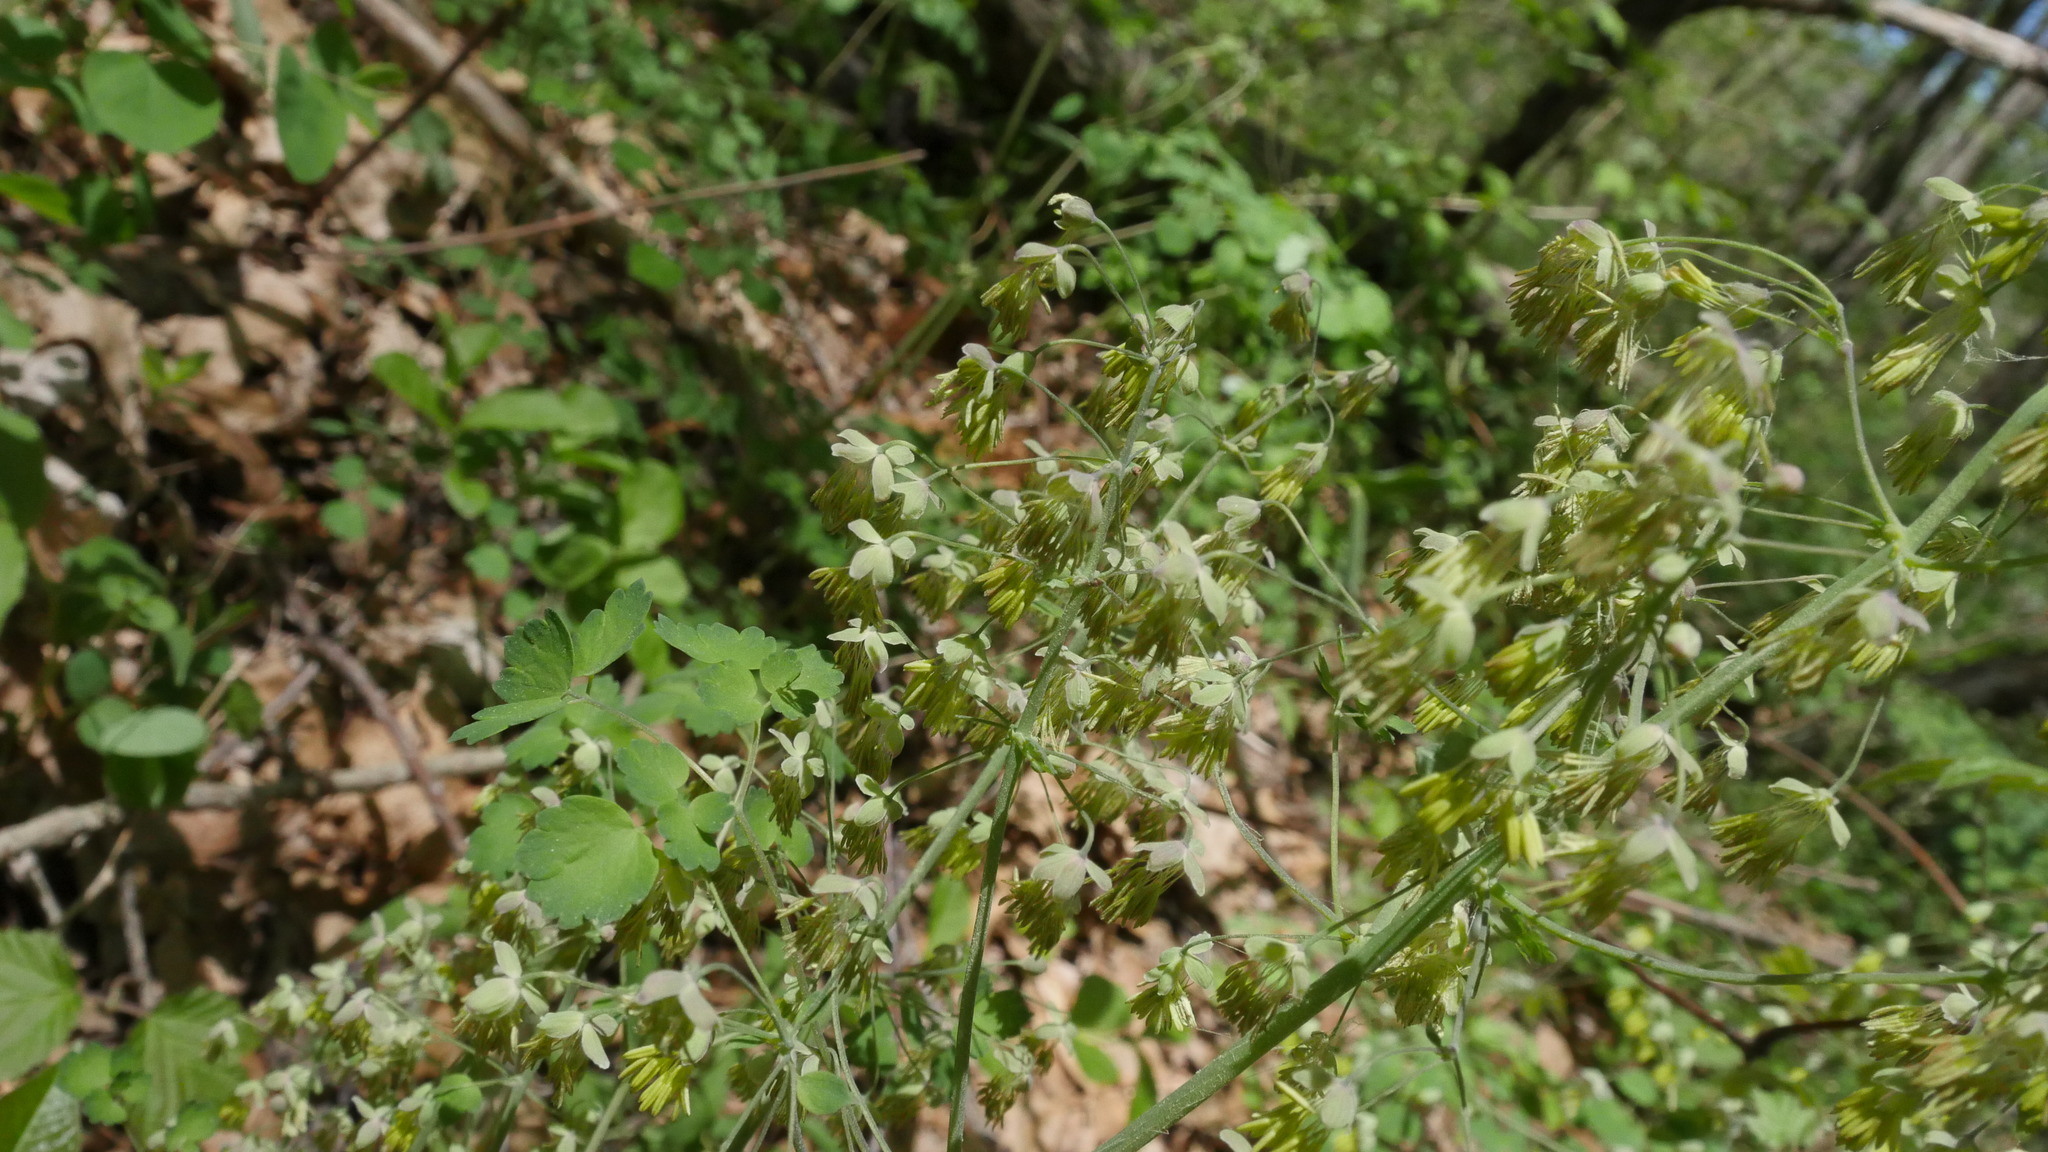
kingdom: Plantae
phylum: Tracheophyta
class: Magnoliopsida
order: Ranunculales
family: Ranunculaceae
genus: Thalictrum
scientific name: Thalictrum dioicum
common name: Early meadow-rue
